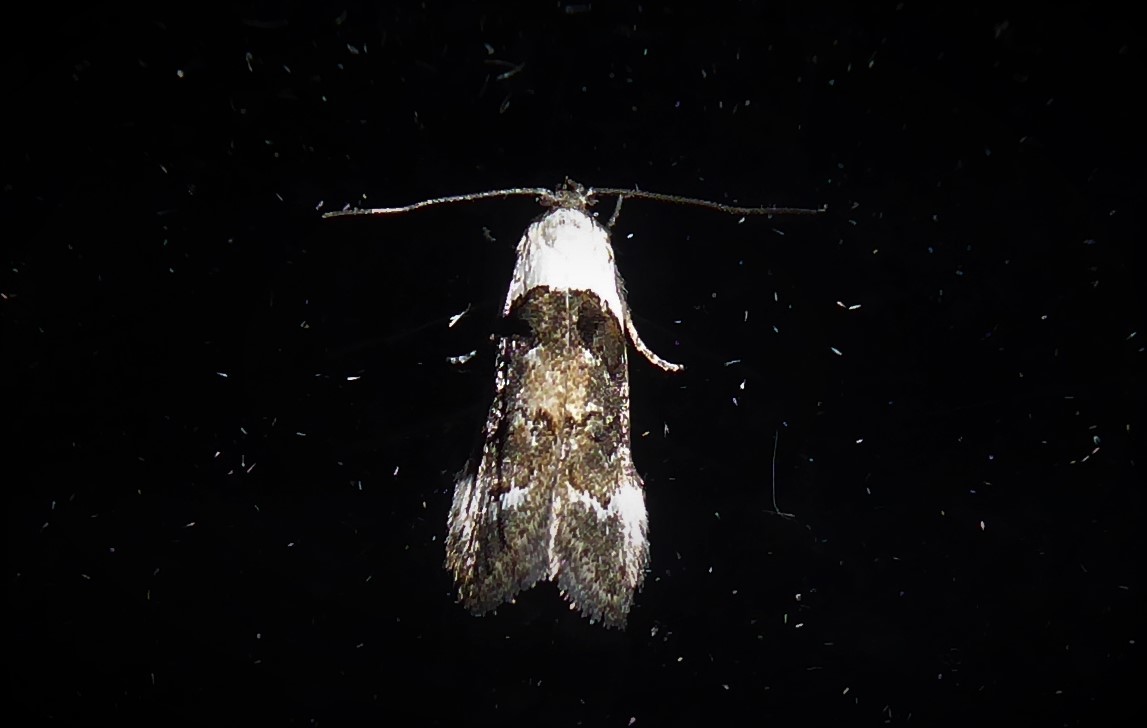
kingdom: Animalia
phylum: Arthropoda
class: Insecta
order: Lepidoptera
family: Oecophoridae
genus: Trachypepla
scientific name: Trachypepla conspicuella
